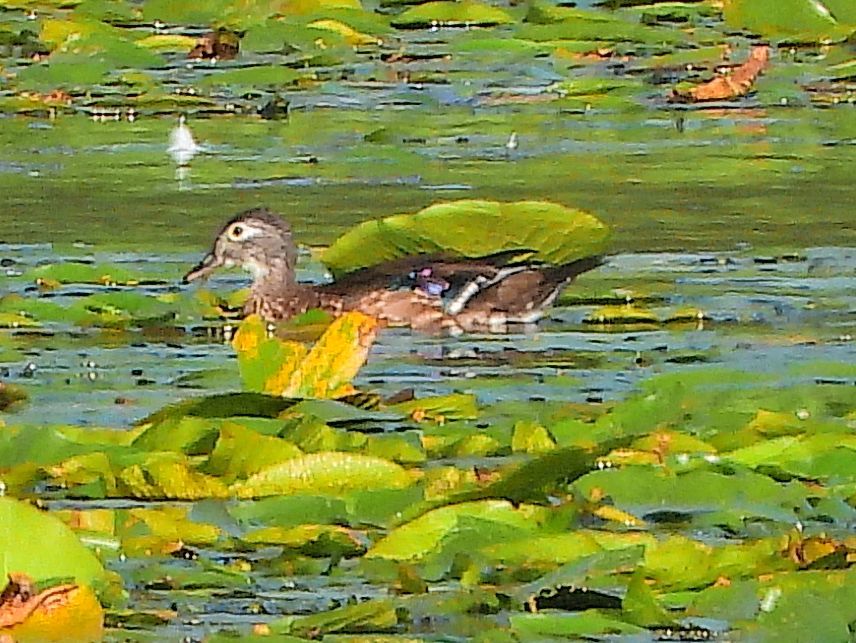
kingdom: Animalia
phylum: Chordata
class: Aves
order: Anseriformes
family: Anatidae
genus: Aix
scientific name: Aix sponsa
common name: Wood duck
